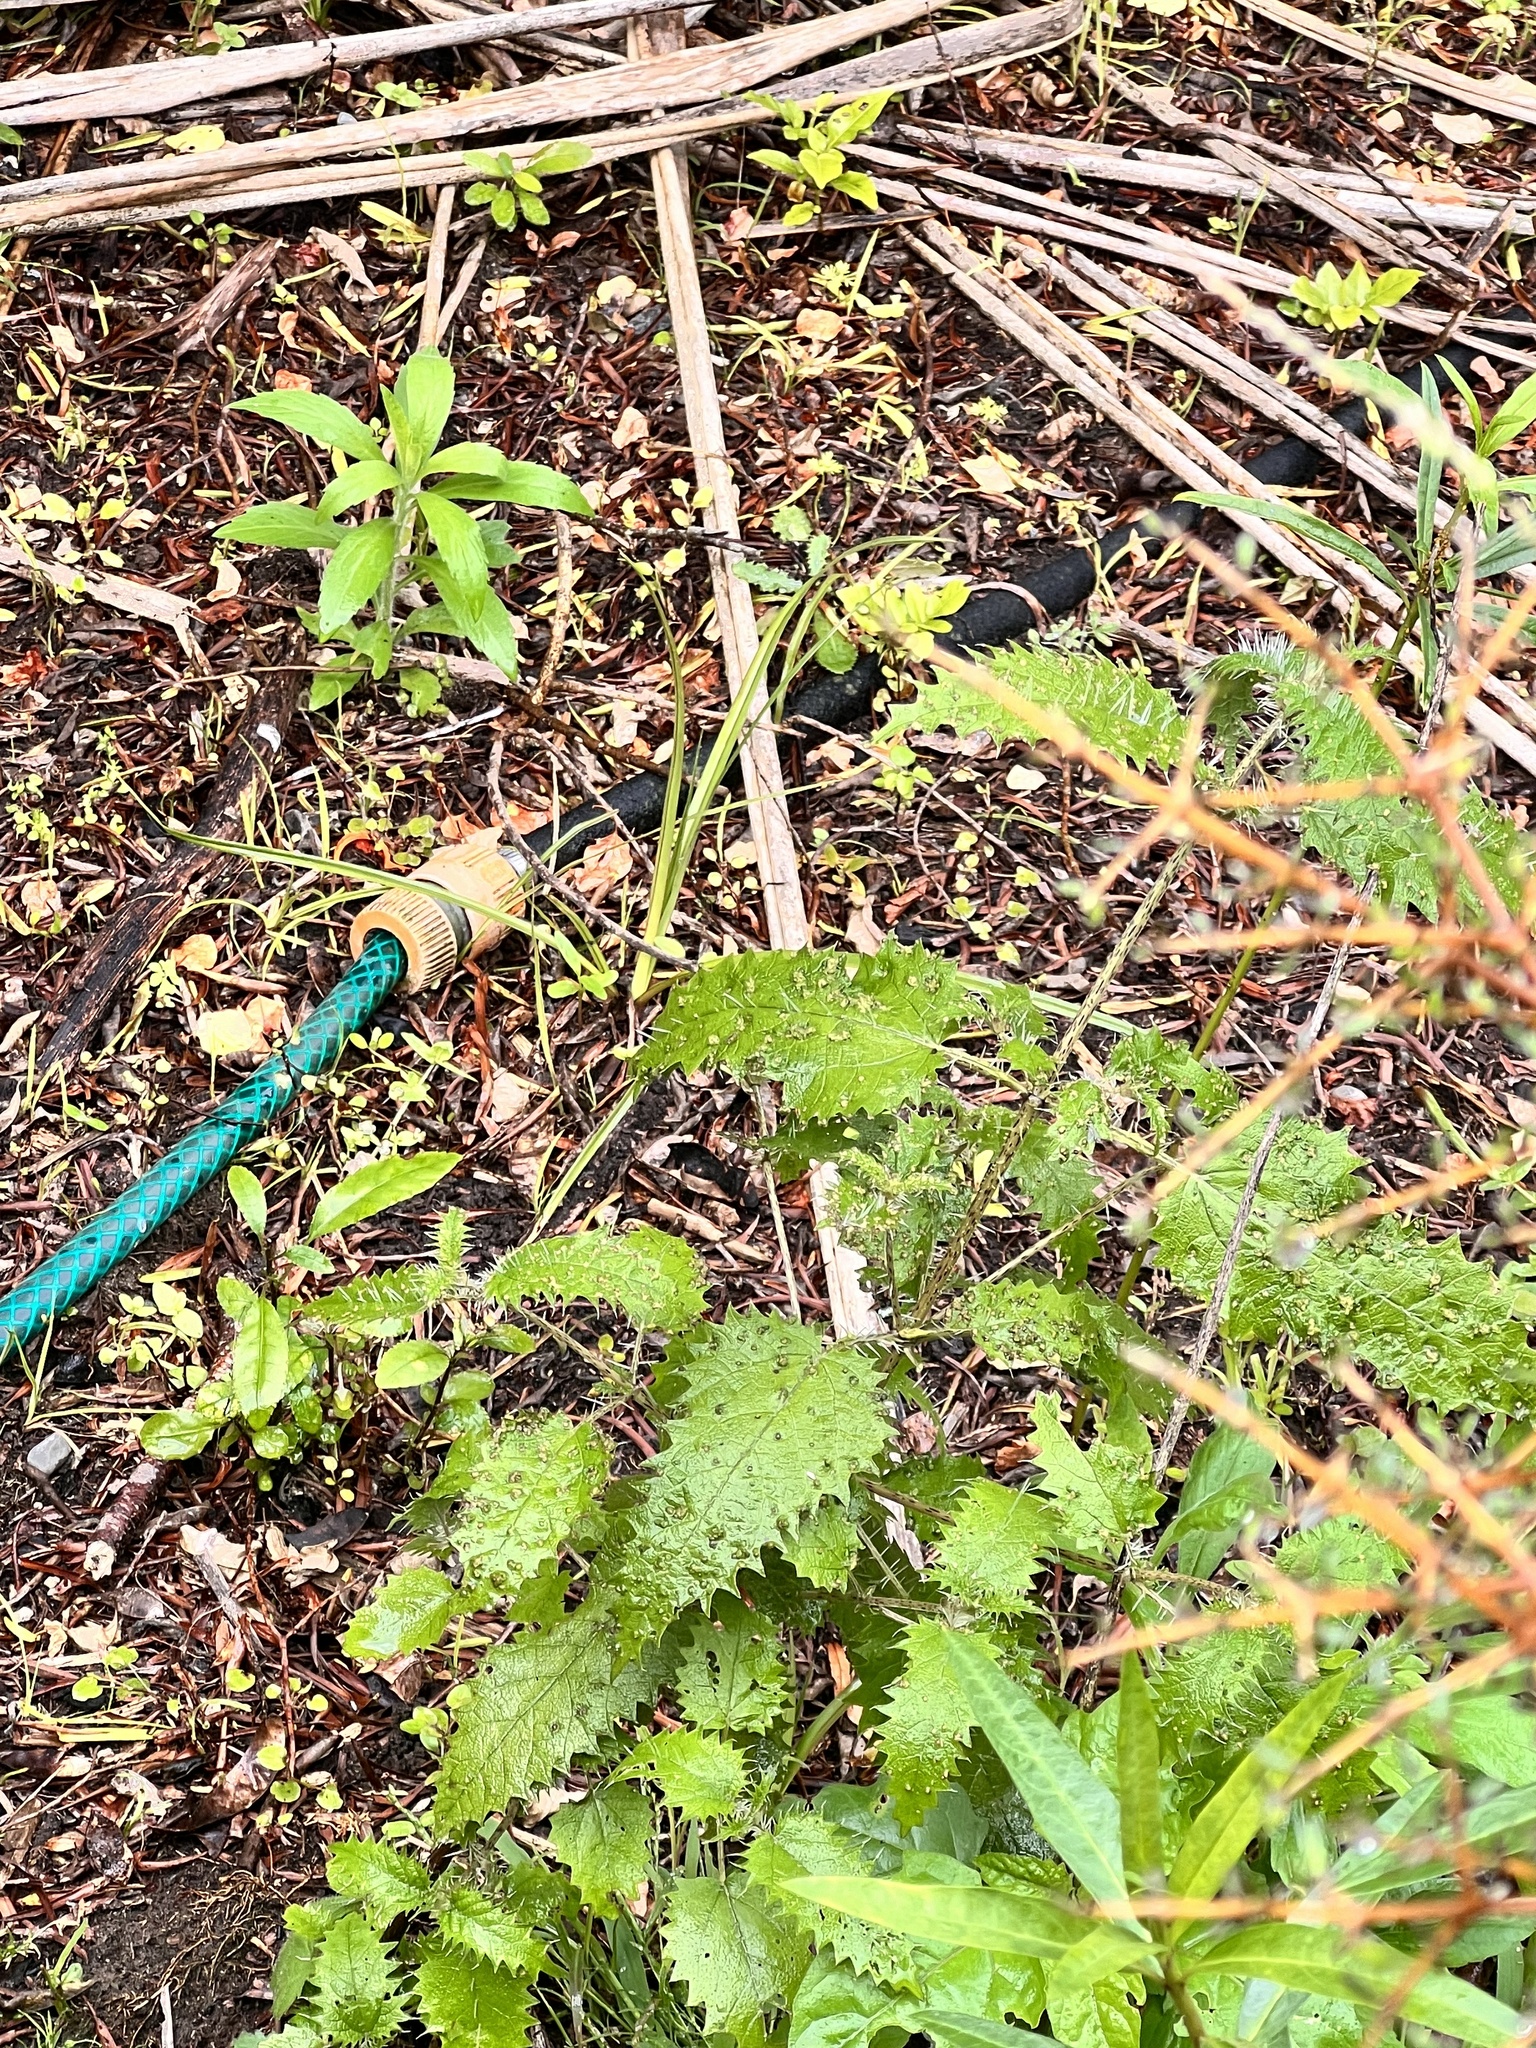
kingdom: Plantae
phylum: Tracheophyta
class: Magnoliopsida
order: Rosales
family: Urticaceae
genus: Urtica
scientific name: Urtica ferox
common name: Tree nettle
